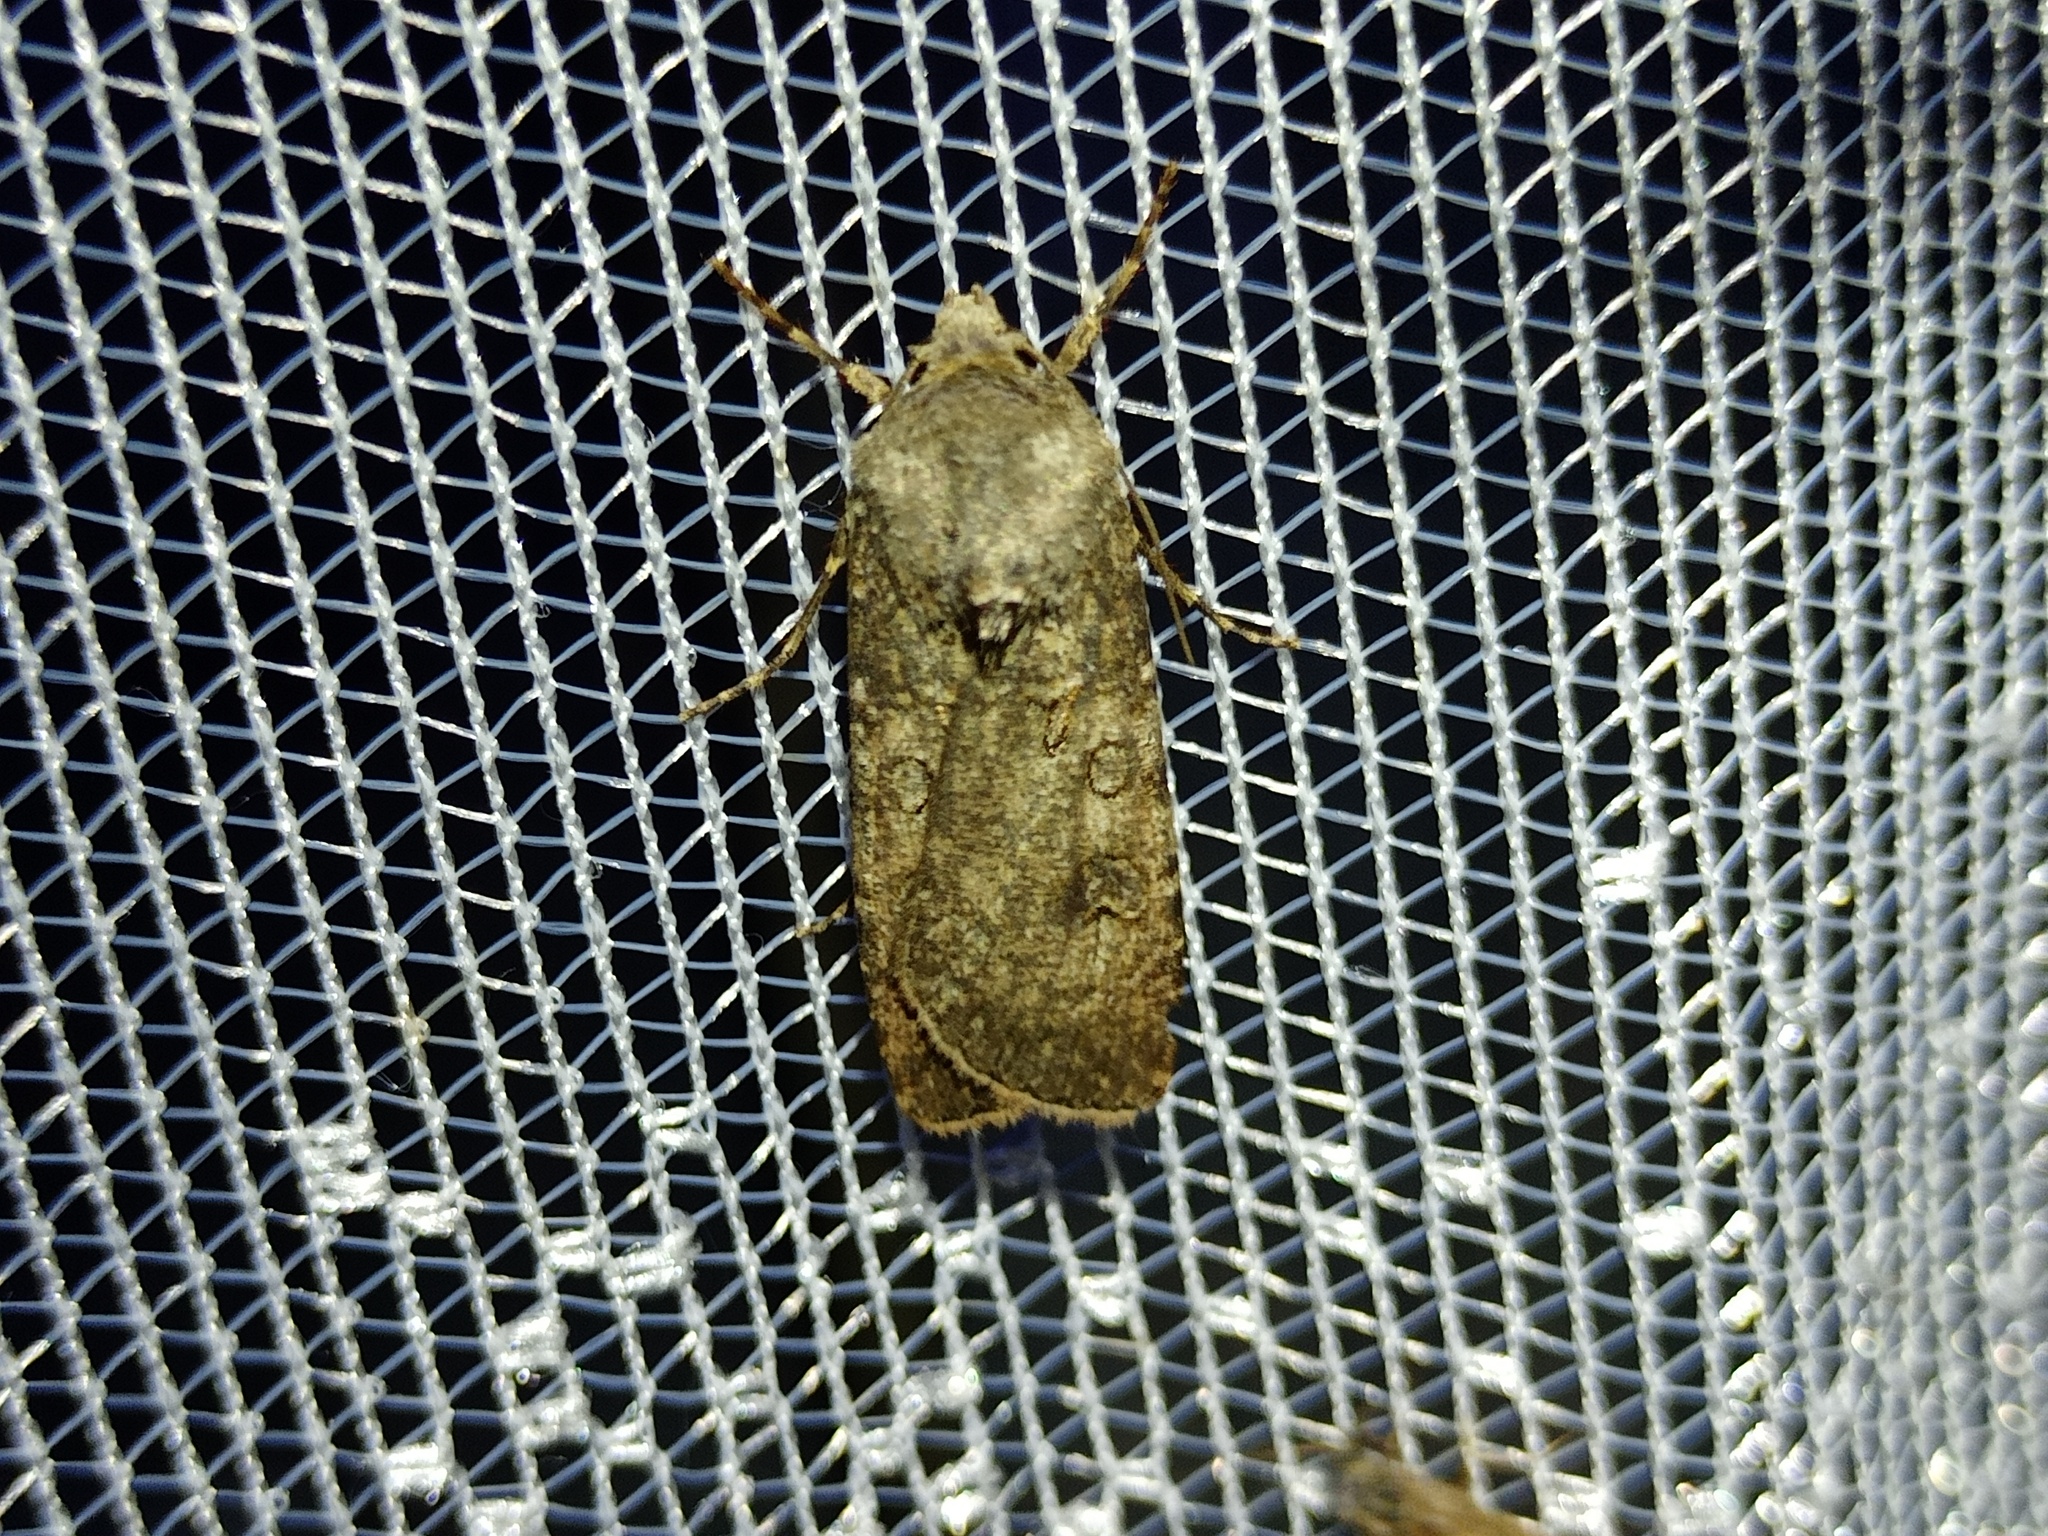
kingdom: Animalia
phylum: Arthropoda
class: Insecta
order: Lepidoptera
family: Noctuidae
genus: Agrotis
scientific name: Agrotis segetum
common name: Turnip moth
